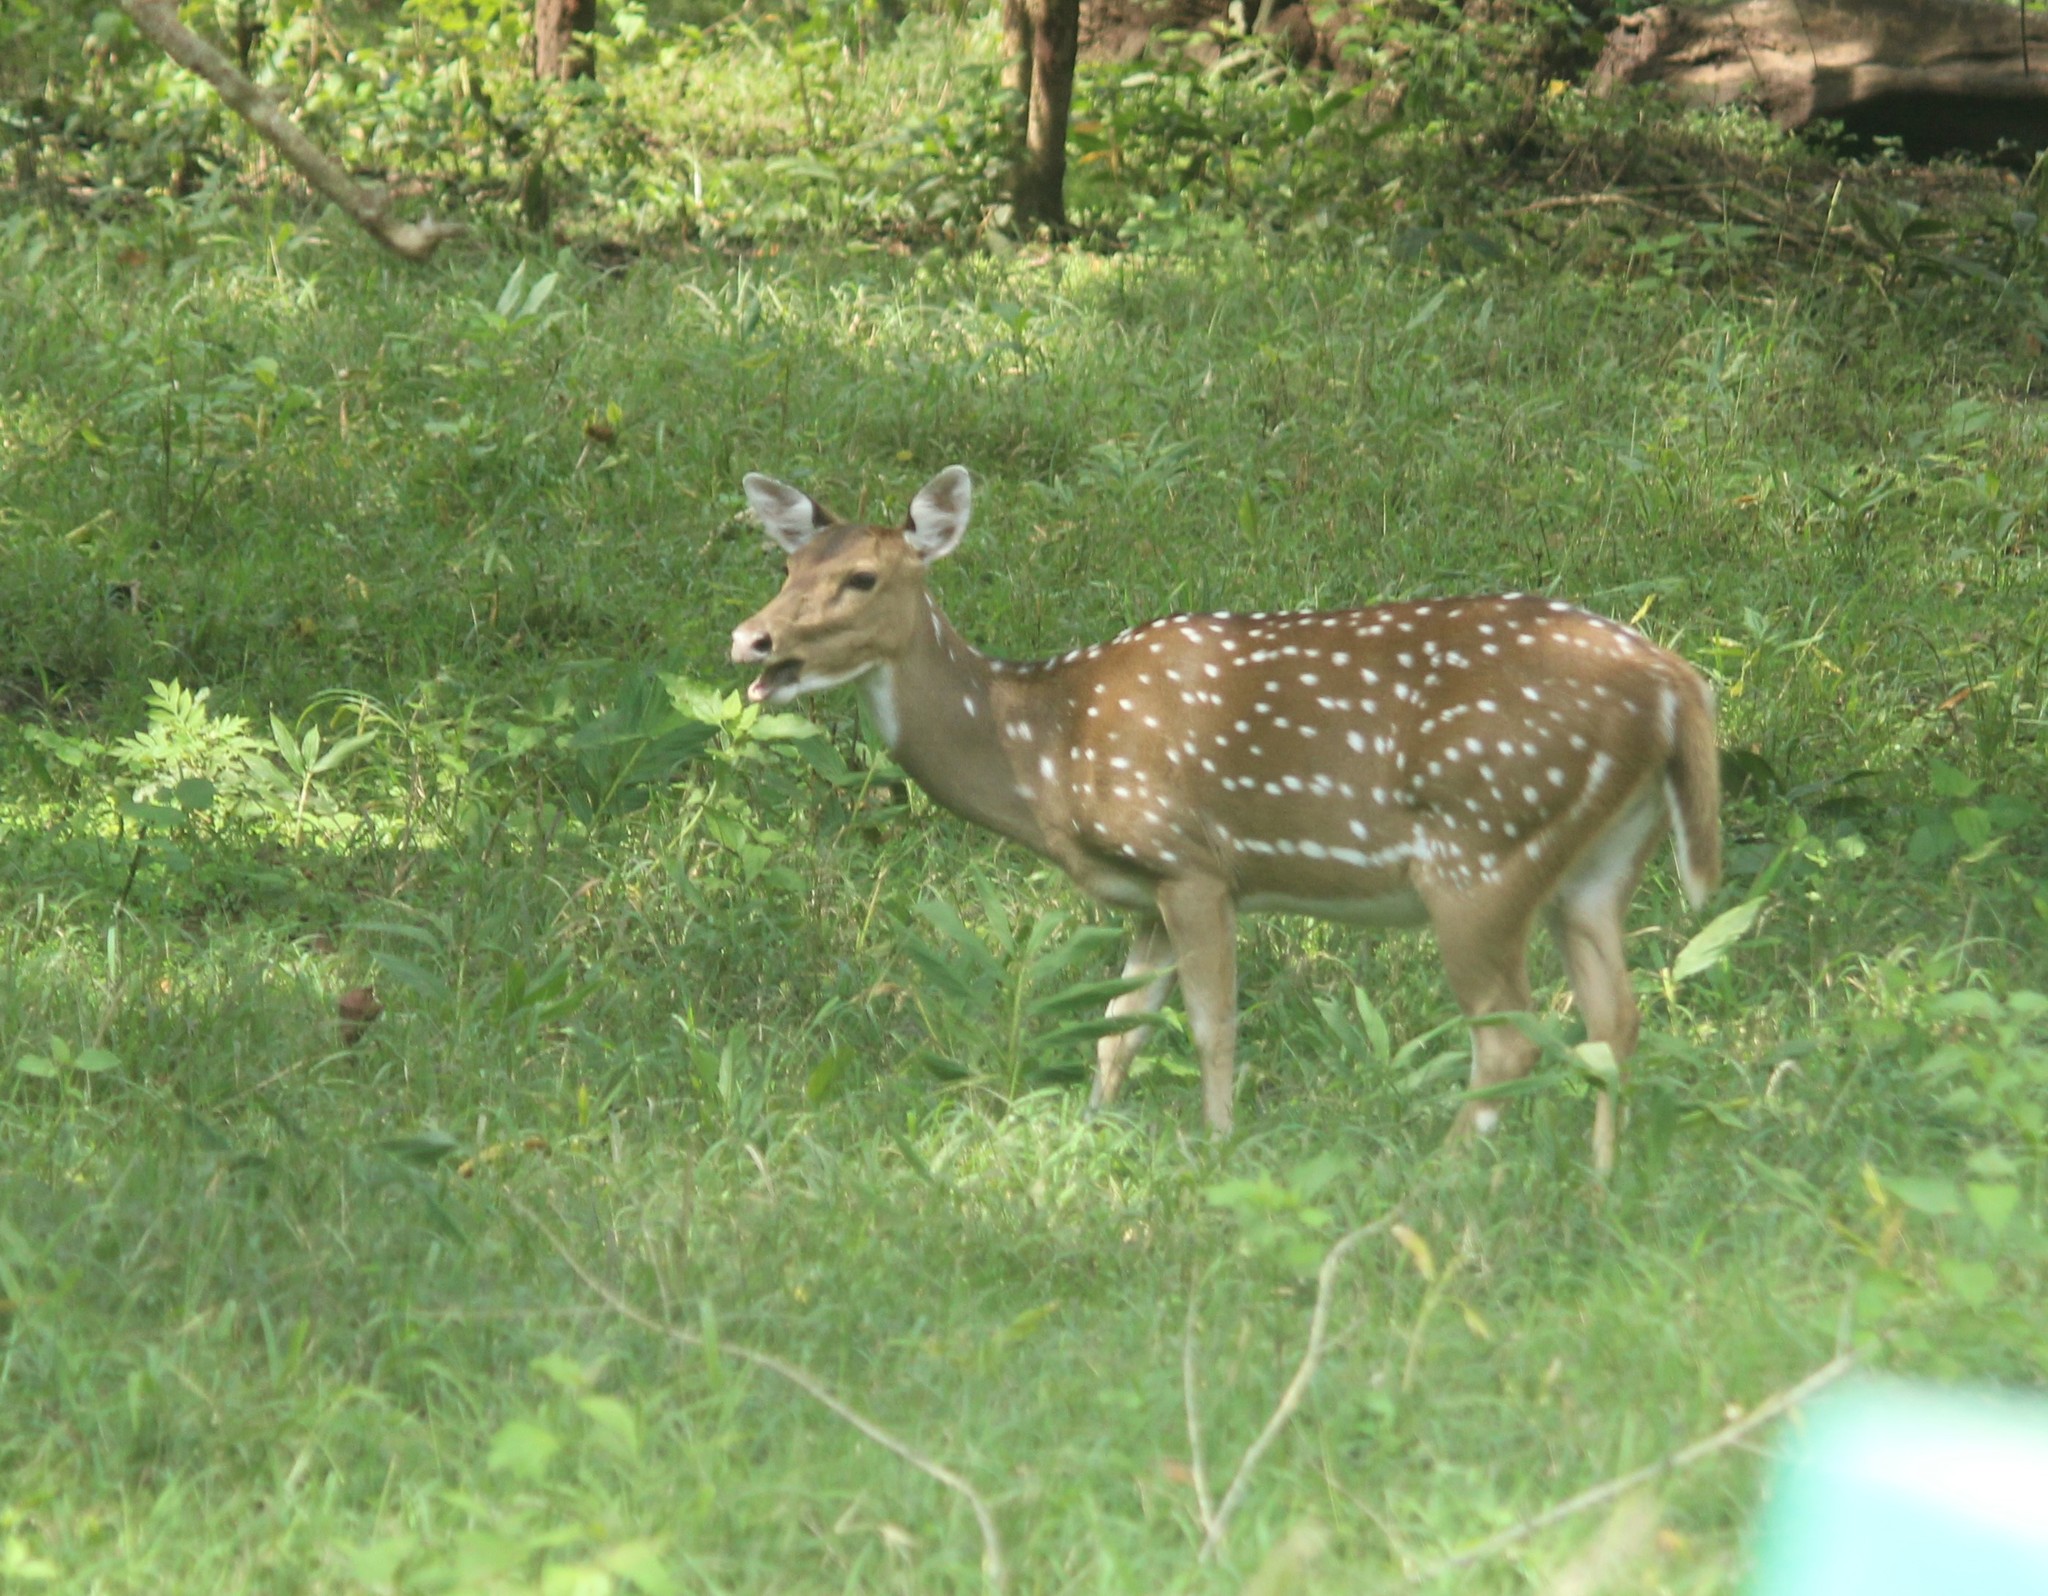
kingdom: Animalia
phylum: Chordata
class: Mammalia
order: Artiodactyla
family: Cervidae
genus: Axis
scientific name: Axis axis
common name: Chital
